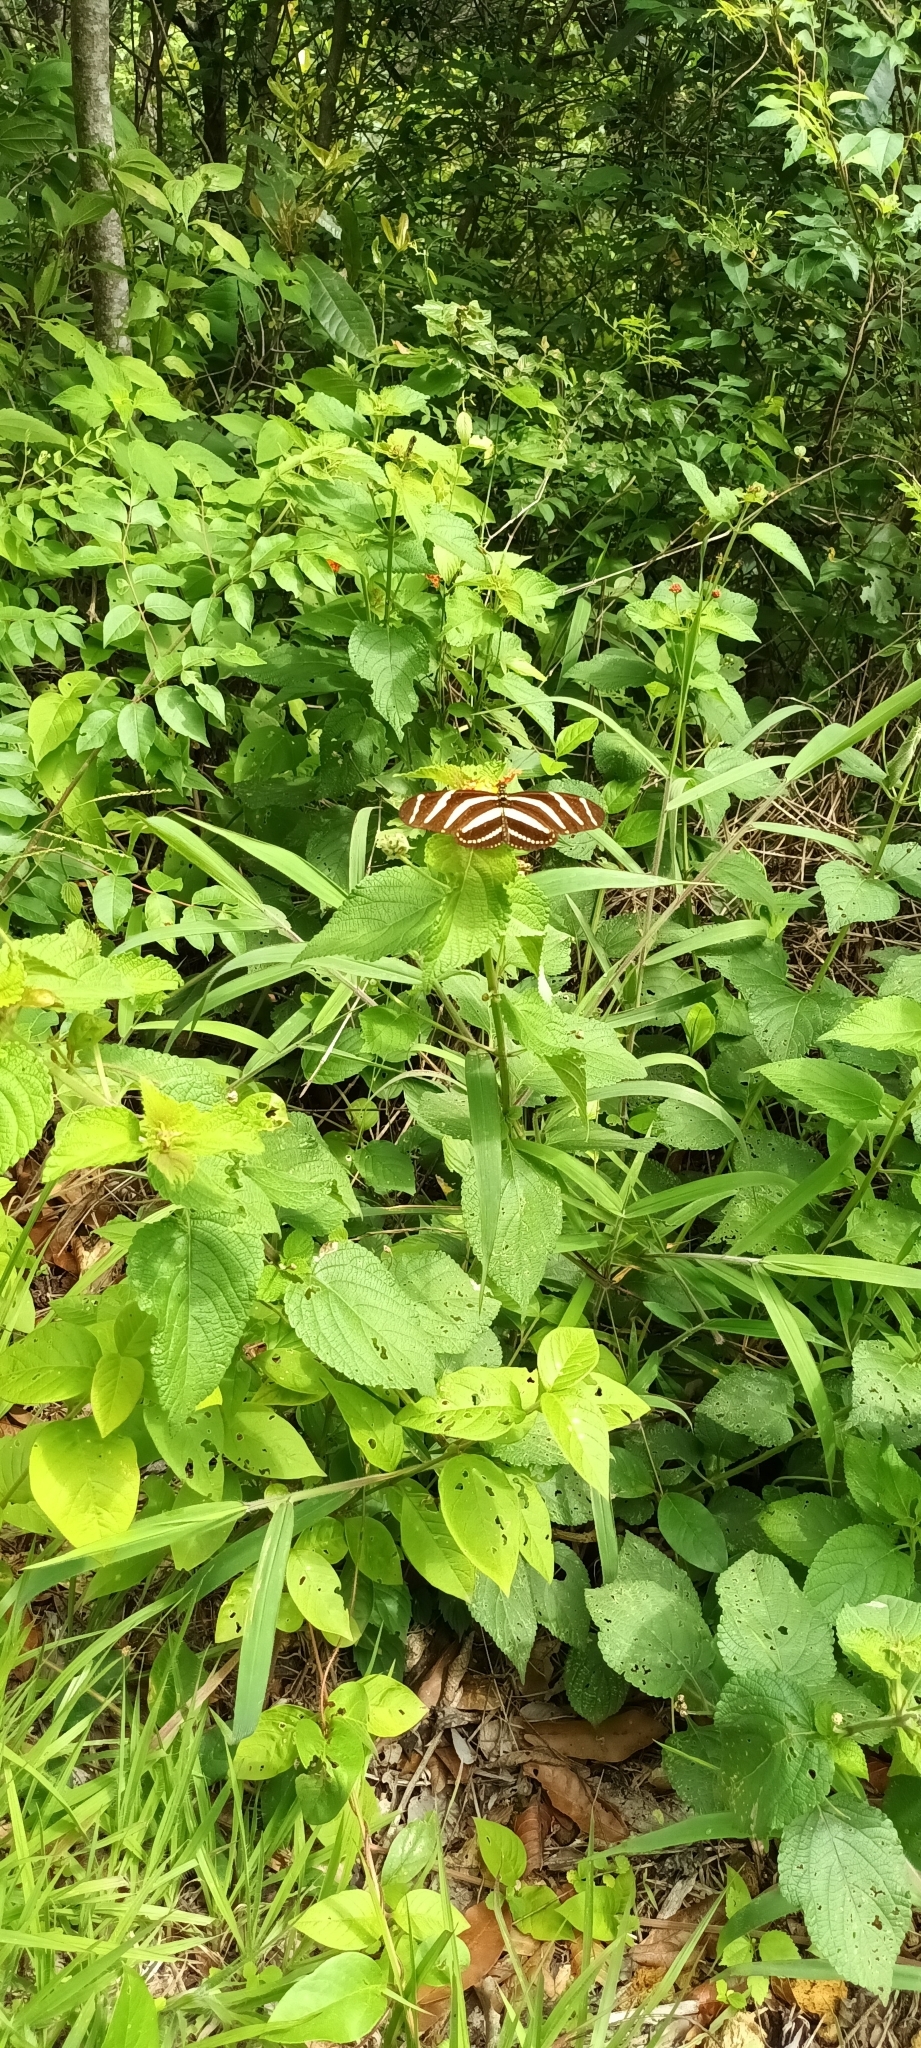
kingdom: Animalia
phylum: Arthropoda
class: Insecta
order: Lepidoptera
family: Nymphalidae
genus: Heliconius
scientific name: Heliconius charithonia
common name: Zebra long wing
